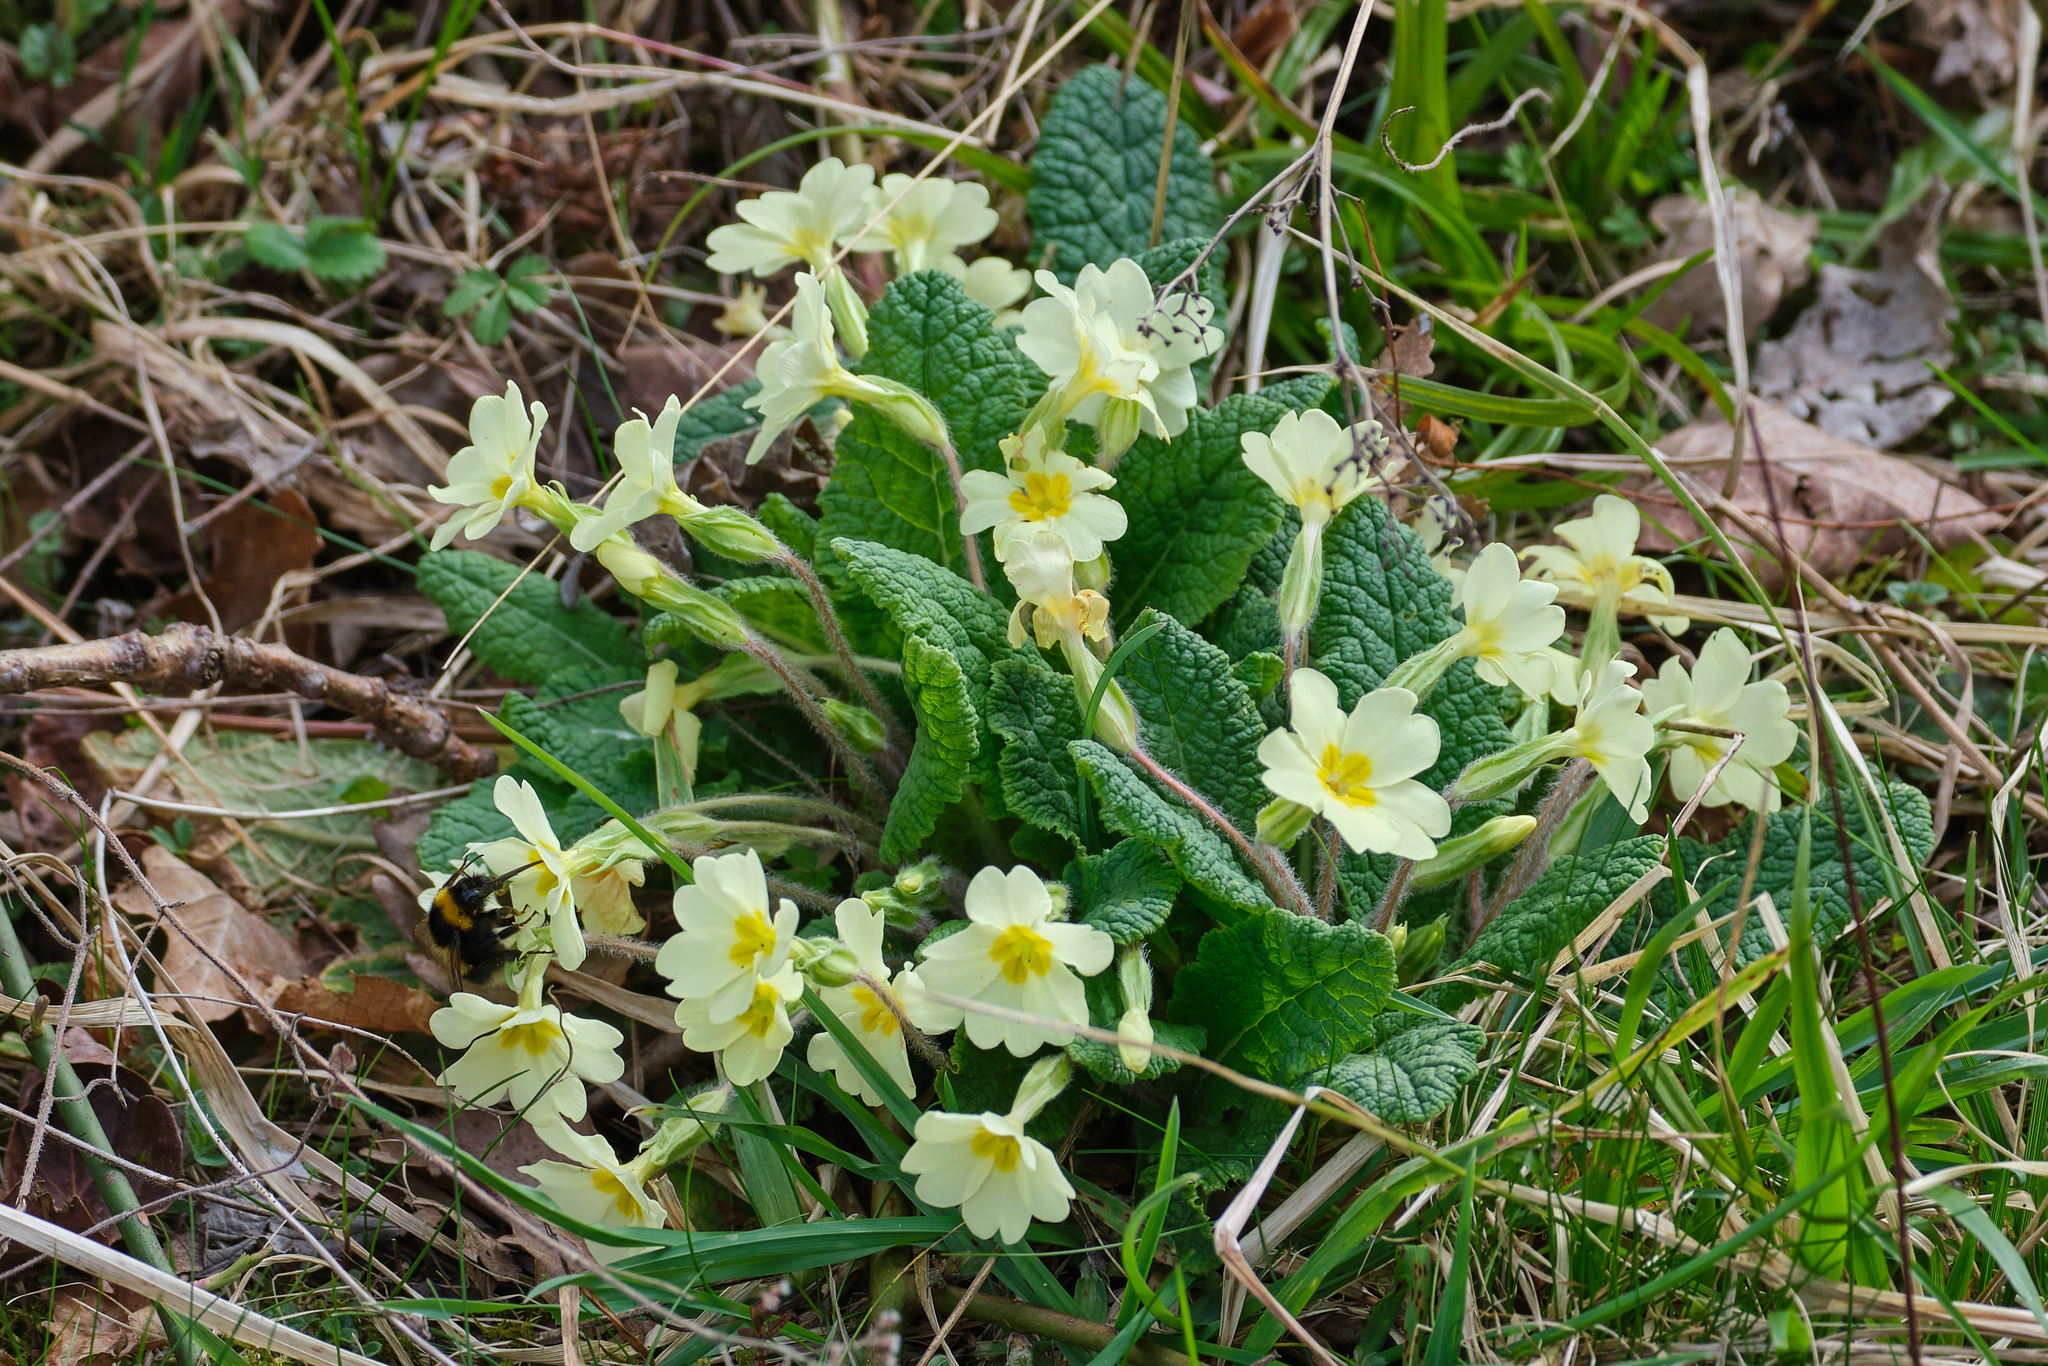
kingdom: Plantae
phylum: Tracheophyta
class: Magnoliopsida
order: Ericales
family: Primulaceae
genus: Primula
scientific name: Primula vulgaris
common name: Primrose
